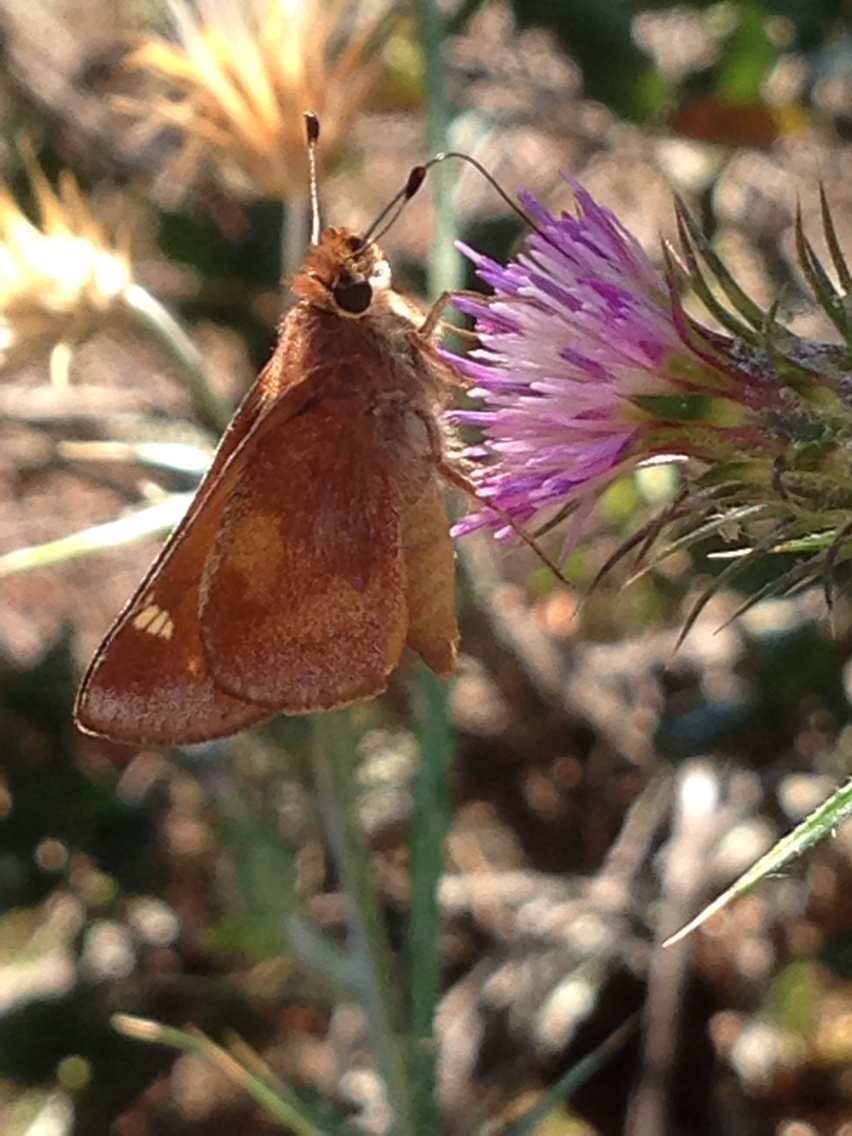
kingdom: Animalia
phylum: Arthropoda
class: Insecta
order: Lepidoptera
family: Hesperiidae
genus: Lon
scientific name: Lon melane
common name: Umber skipper
